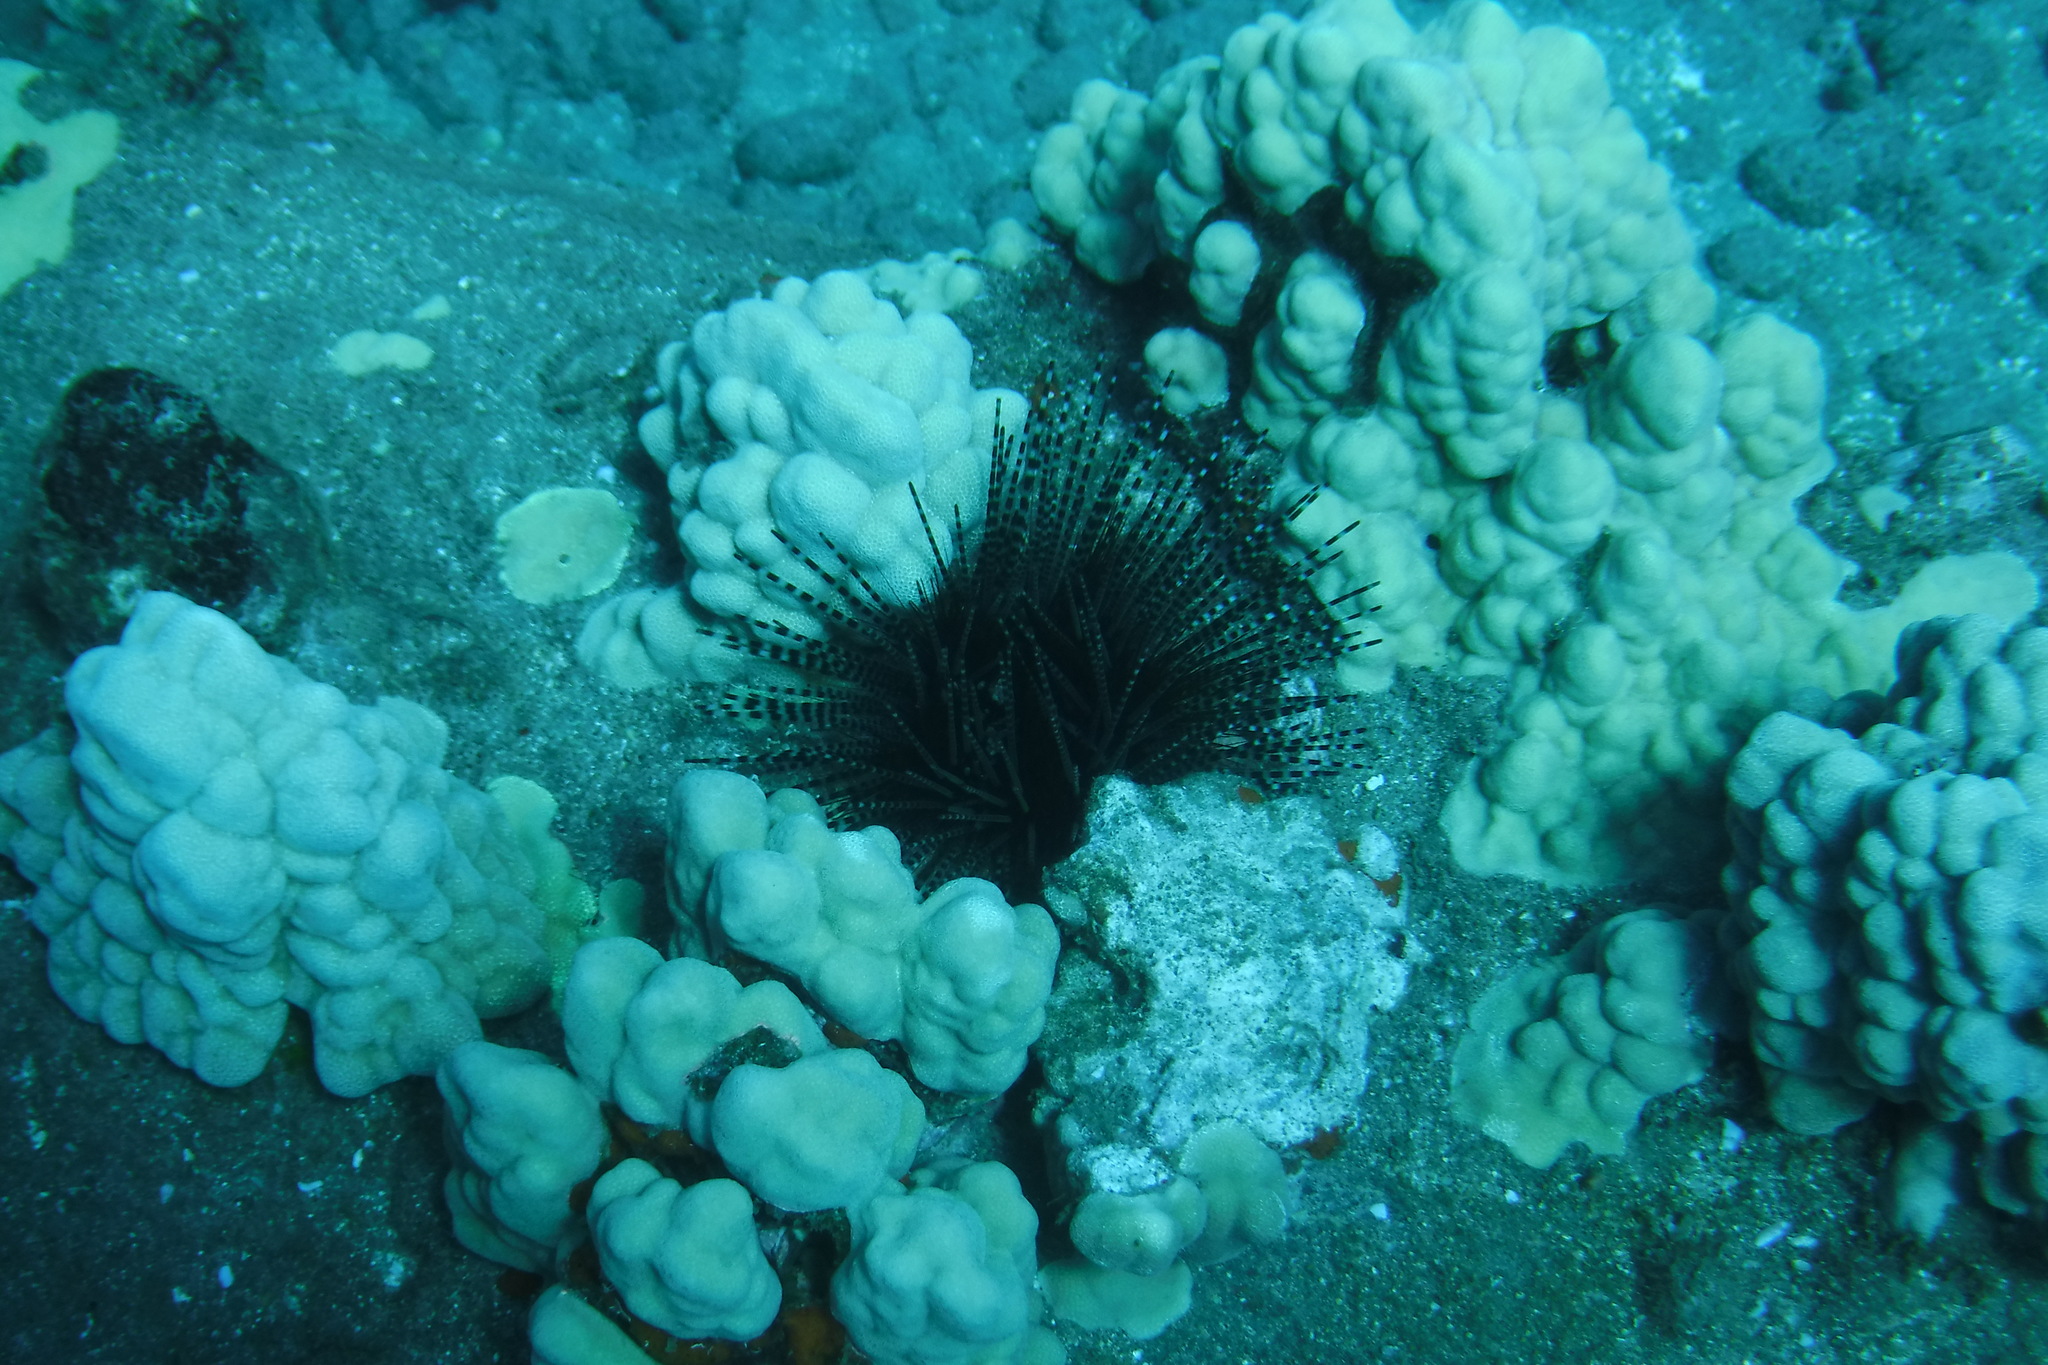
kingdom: Animalia
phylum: Echinodermata
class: Echinoidea
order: Diadematoida
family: Diadematidae
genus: Echinothrix
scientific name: Echinothrix calamaris
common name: Banded sea urchin
